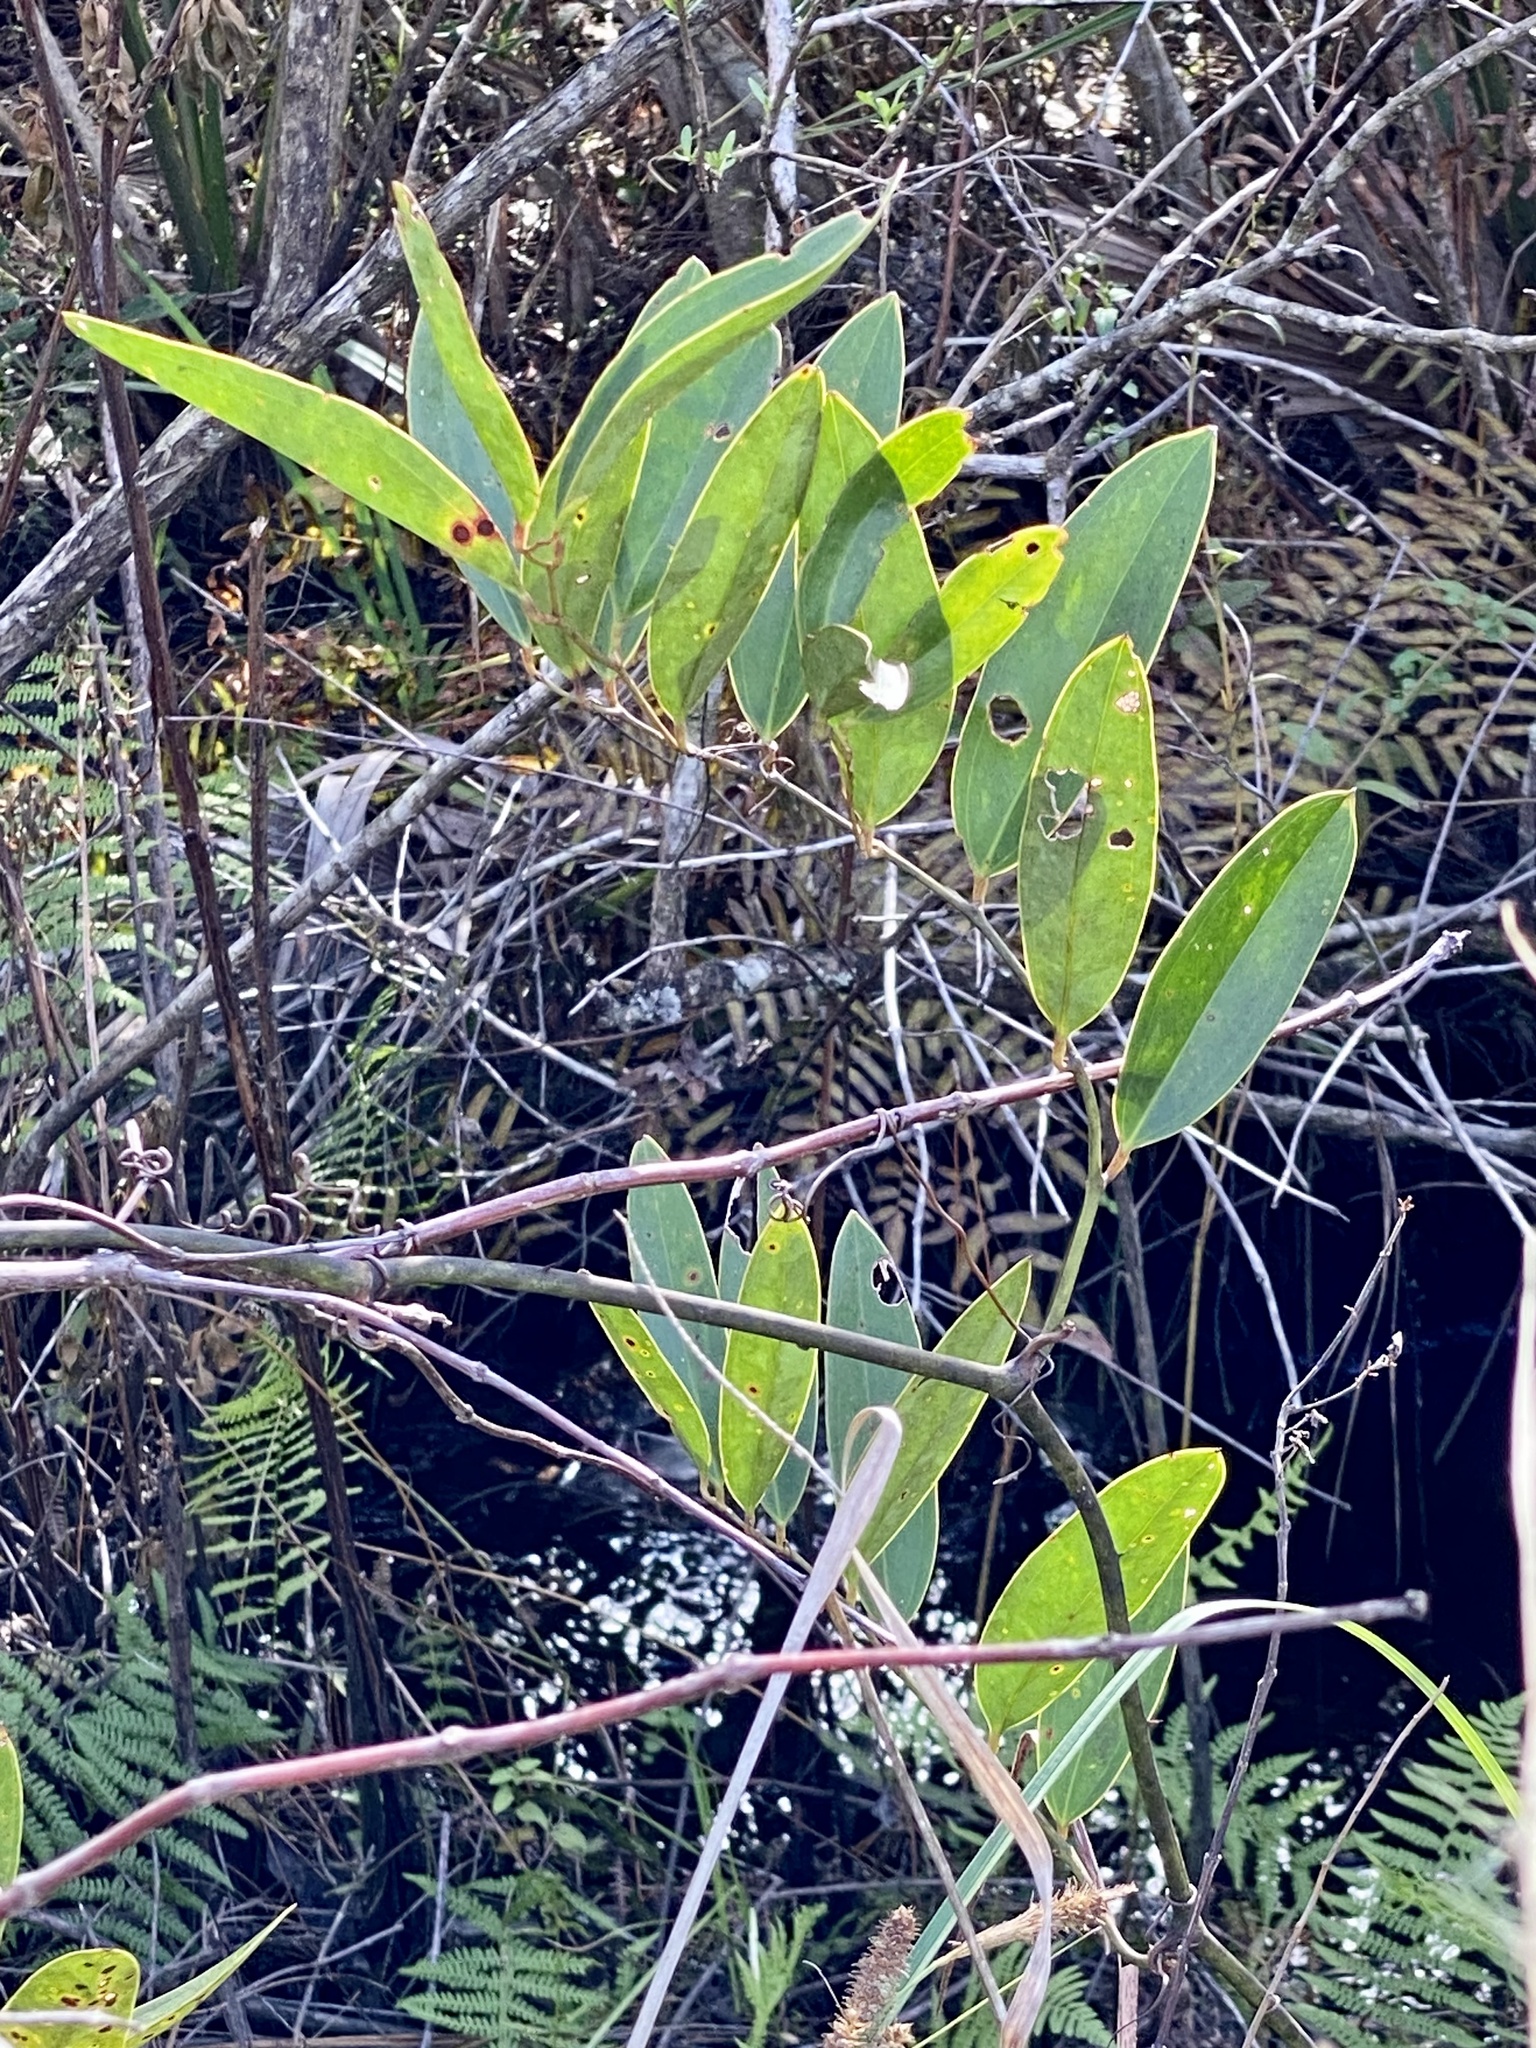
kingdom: Plantae
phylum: Tracheophyta
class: Liliopsida
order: Liliales
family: Smilacaceae
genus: Smilax
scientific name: Smilax laurifolia
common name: Bamboovine
